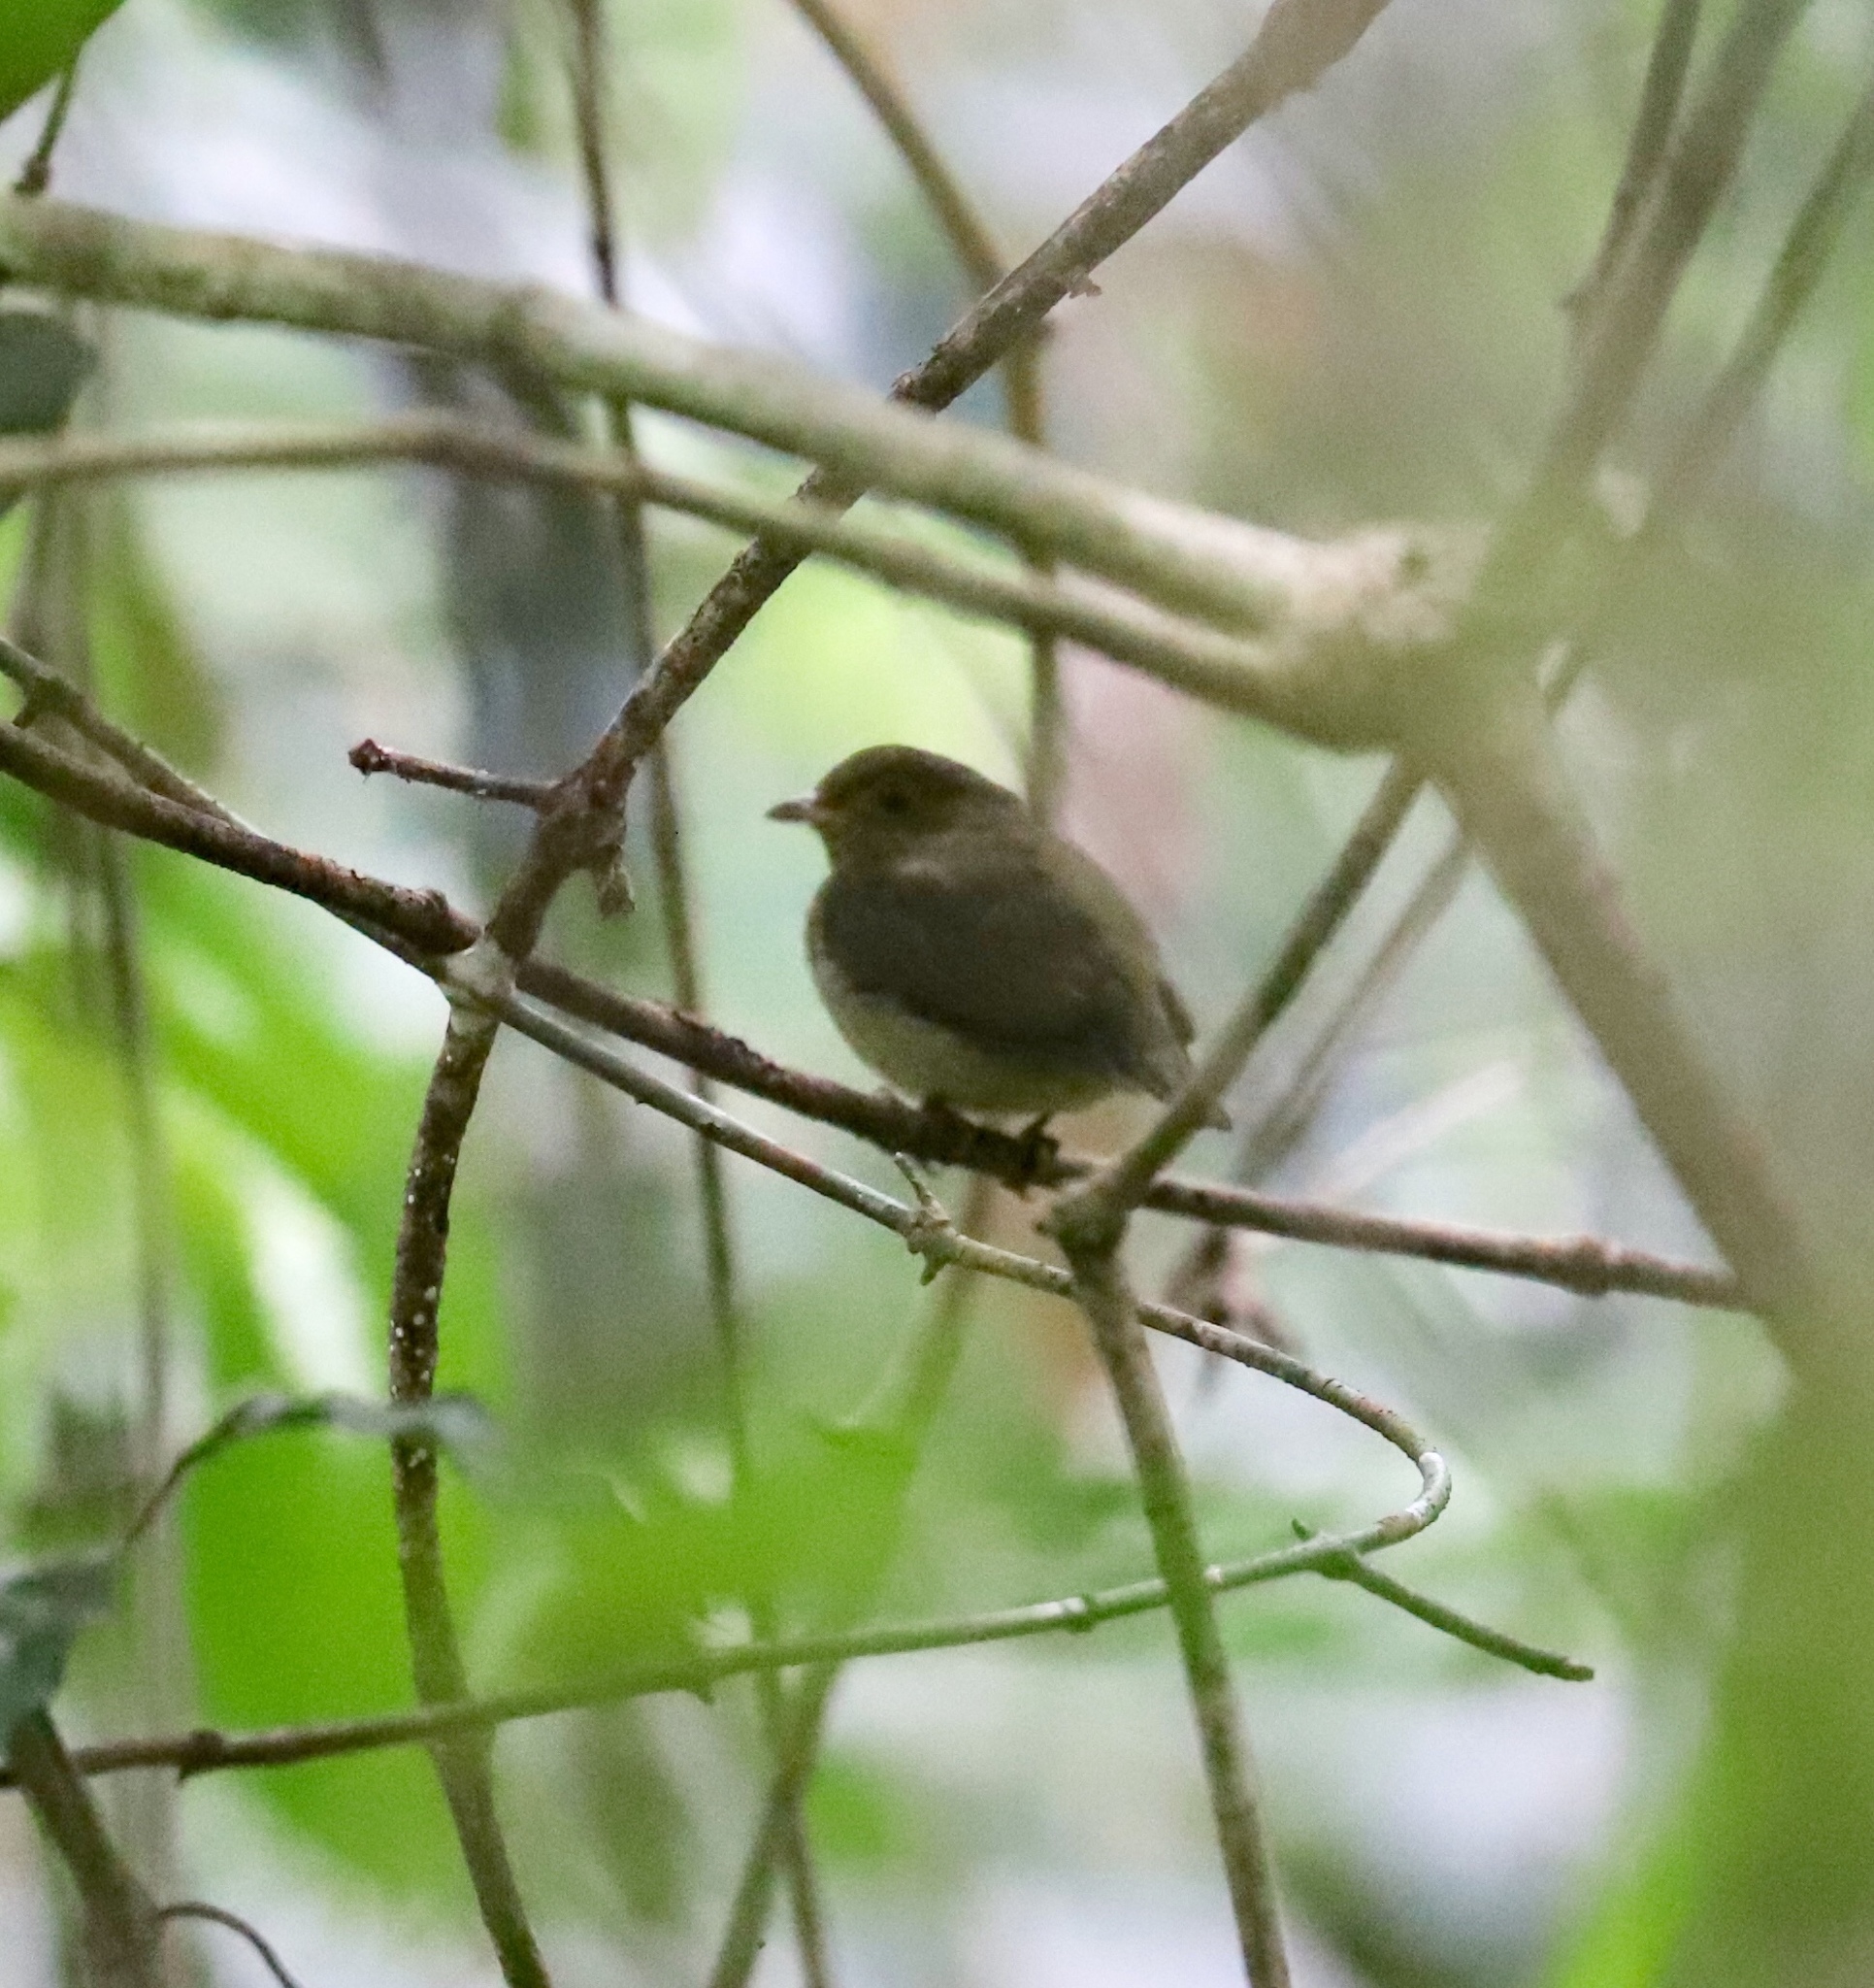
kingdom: Animalia
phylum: Chordata
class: Aves
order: Passeriformes
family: Pipridae
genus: Pipra
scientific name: Pipra mentalis
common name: Red-capped manakin
